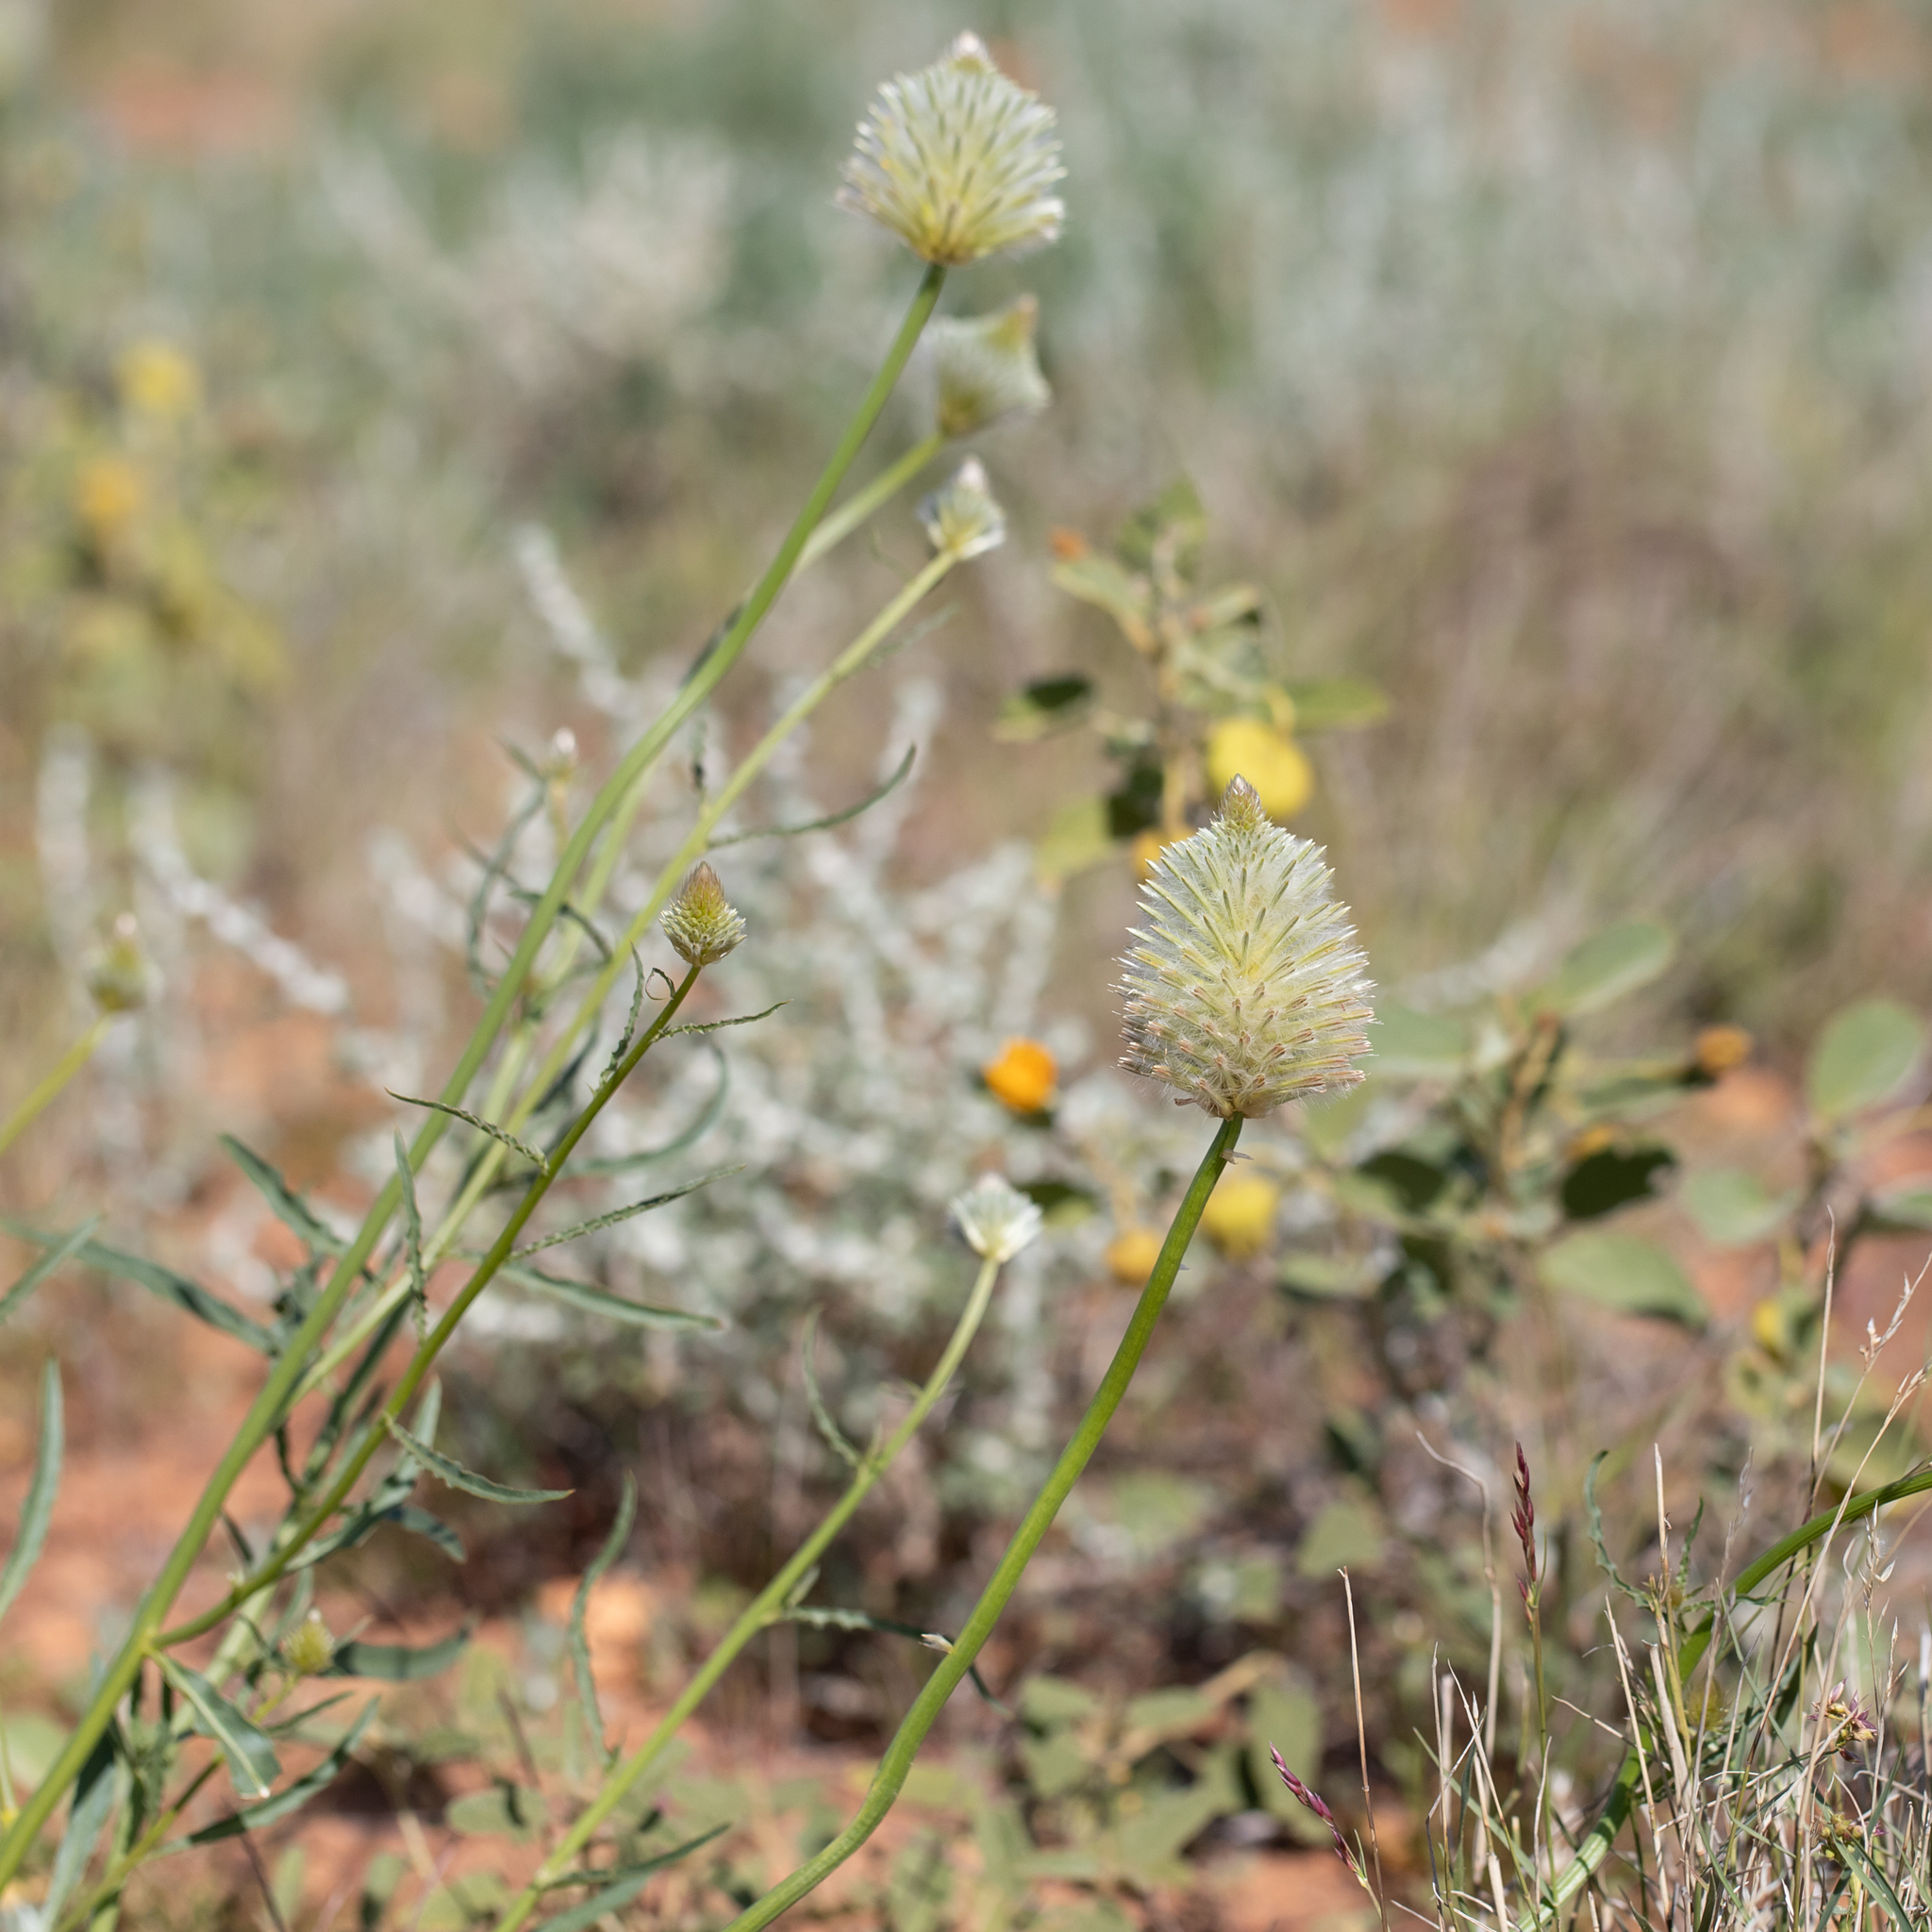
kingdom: Plantae
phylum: Tracheophyta
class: Magnoliopsida
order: Caryophyllales
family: Amaranthaceae
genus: Ptilotus
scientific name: Ptilotus xerophilus
